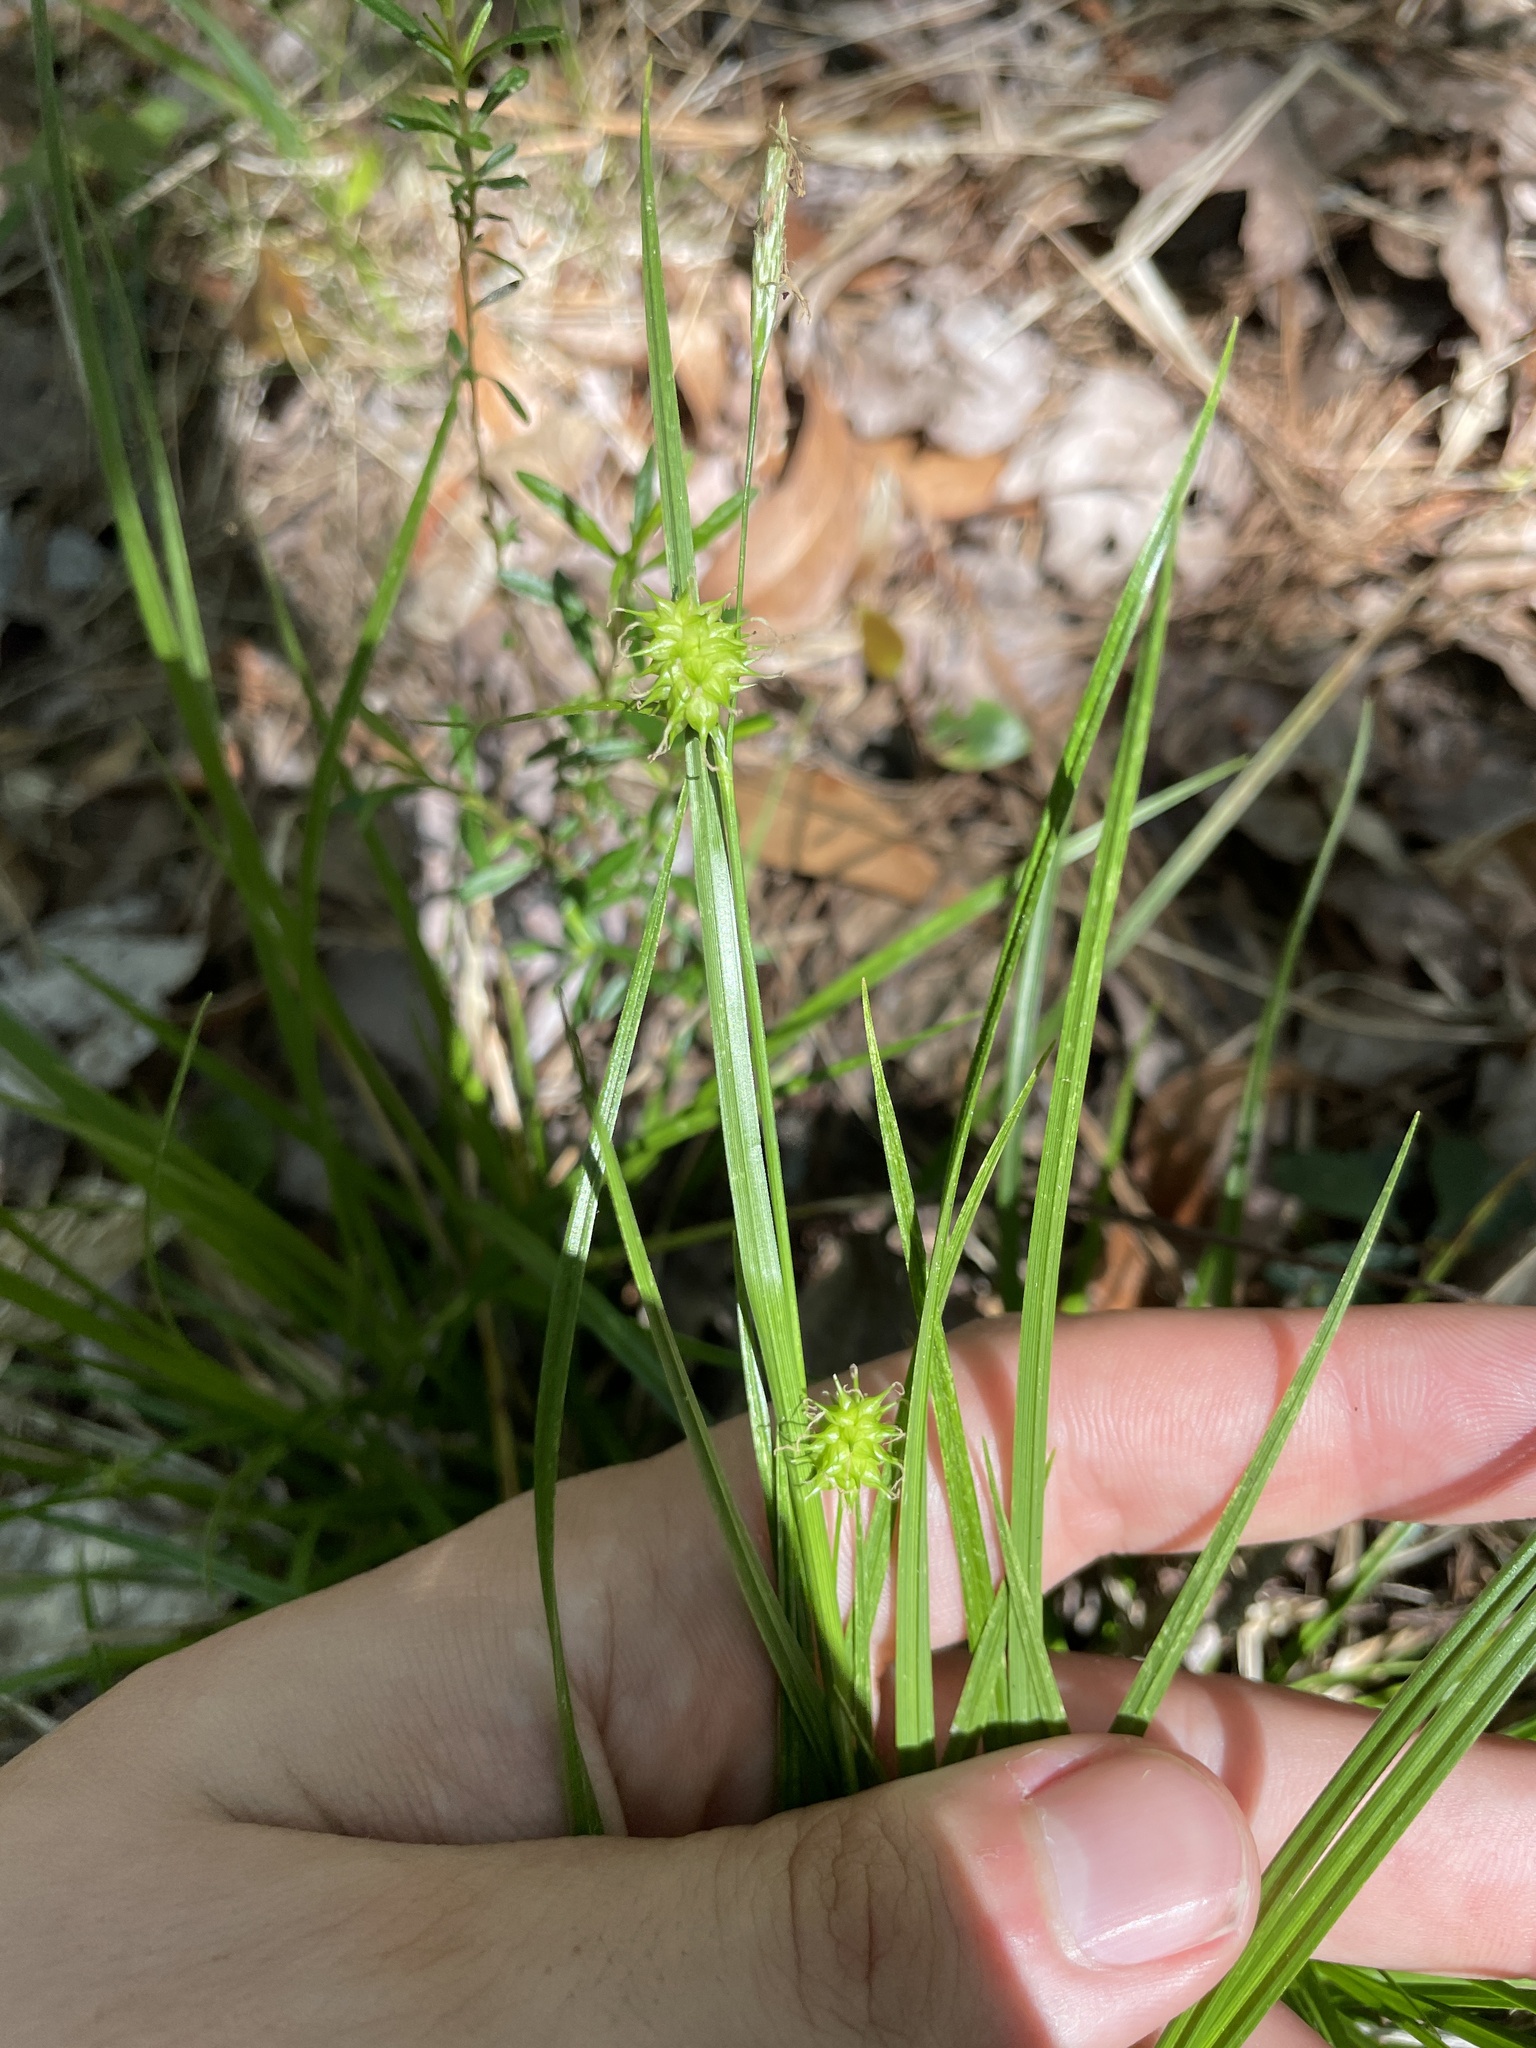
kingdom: Plantae
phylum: Tracheophyta
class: Liliopsida
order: Poales
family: Cyperaceae
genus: Carex
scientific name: Carex lutea
